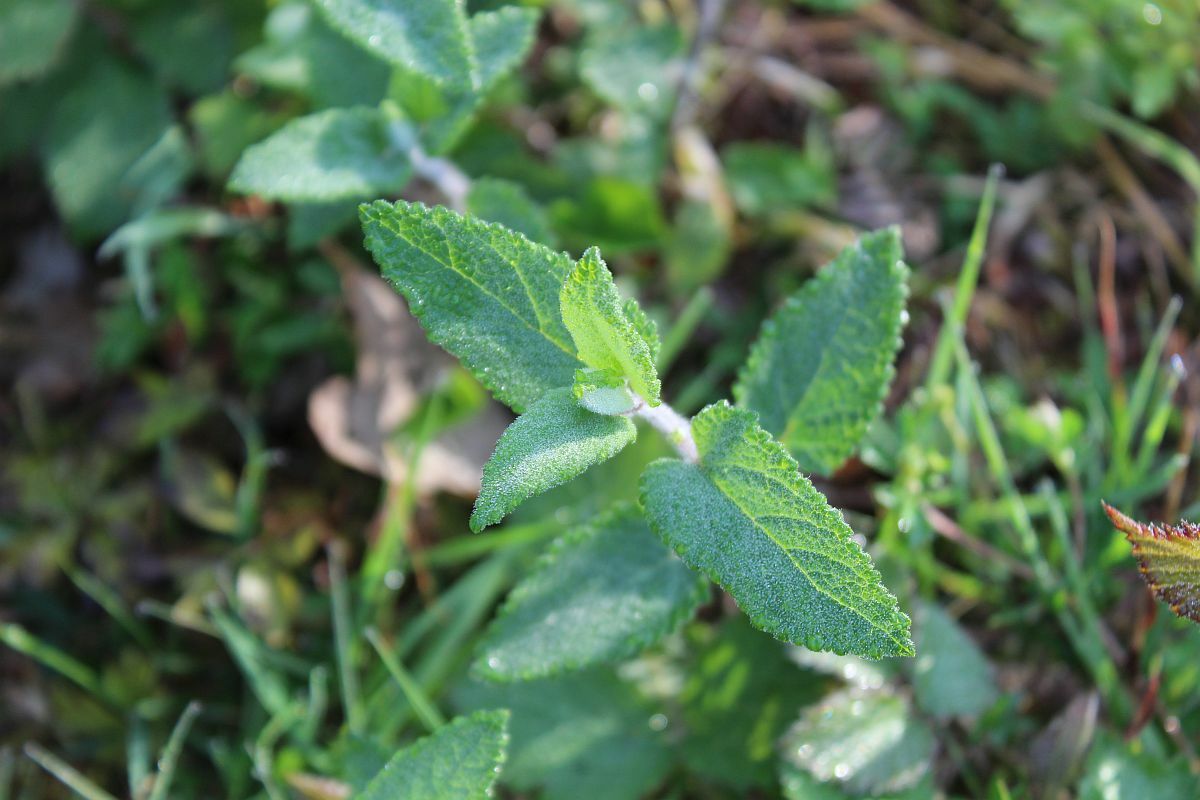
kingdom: Plantae
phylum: Tracheophyta
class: Magnoliopsida
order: Lamiales
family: Lamiaceae
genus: Teucrium
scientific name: Teucrium scorodonia
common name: Woodland germander
